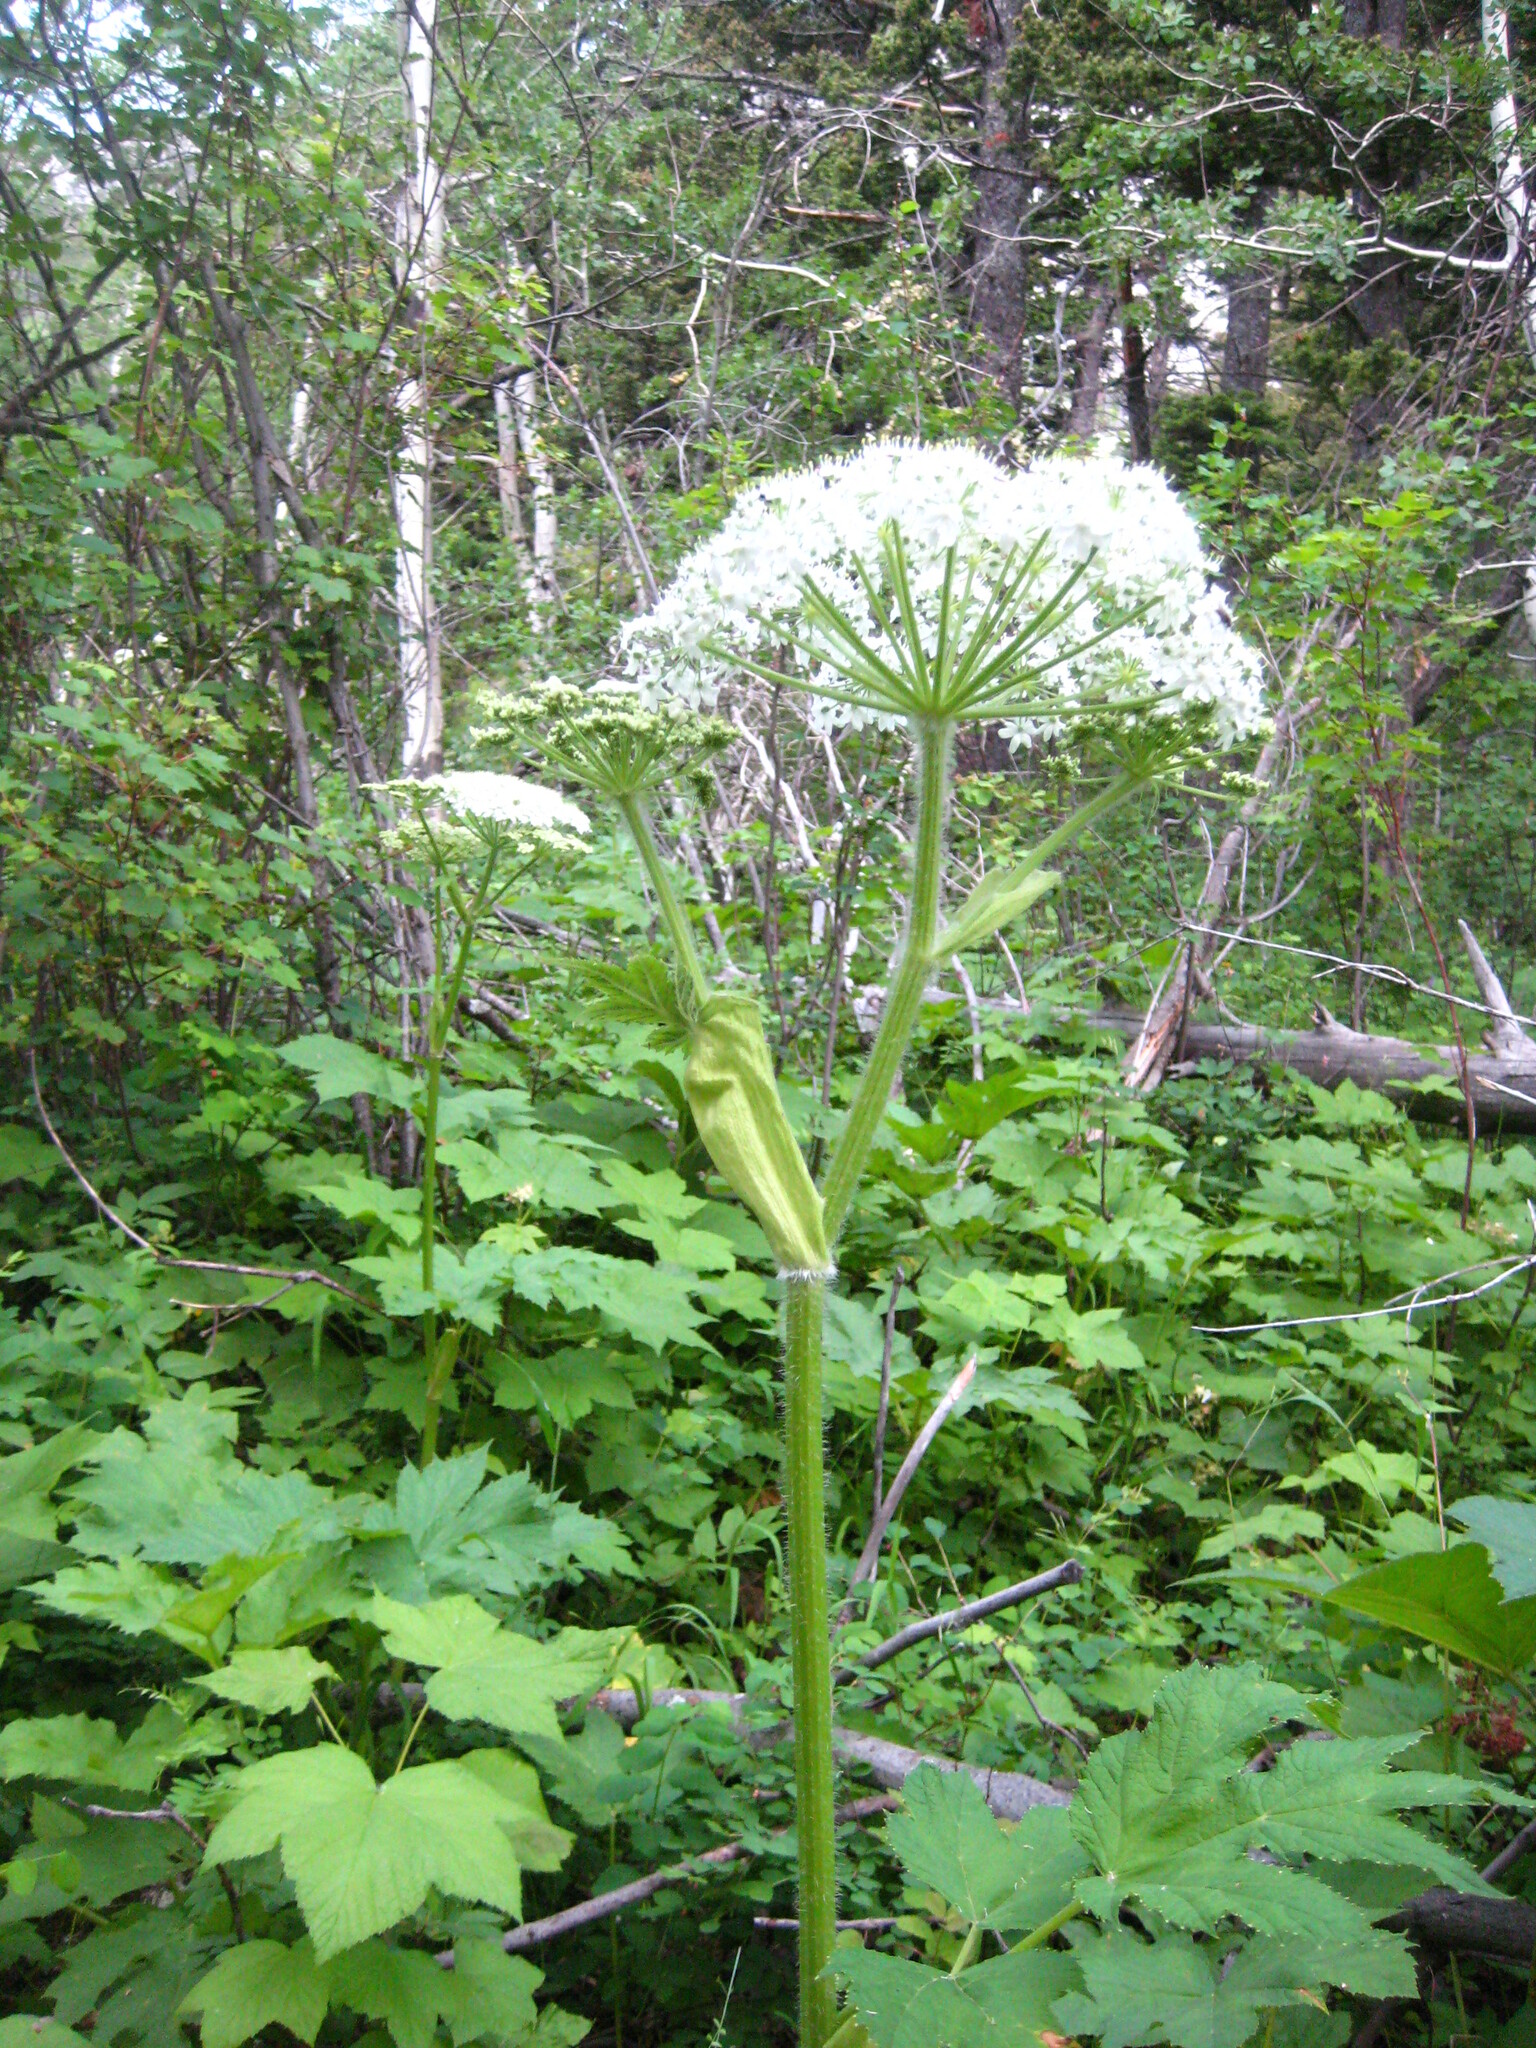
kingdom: Plantae
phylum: Tracheophyta
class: Magnoliopsida
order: Apiales
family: Apiaceae
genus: Heracleum
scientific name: Heracleum maximum
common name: American cow parsnip
